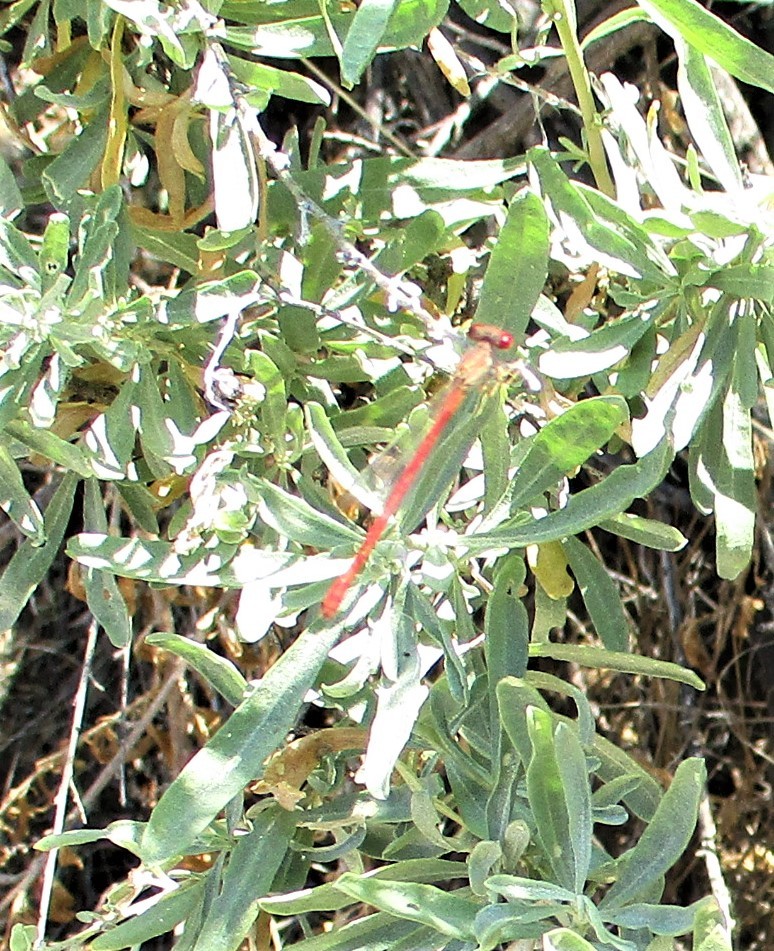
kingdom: Animalia
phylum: Arthropoda
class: Insecta
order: Odonata
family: Coenagrionidae
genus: Telebasis
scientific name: Telebasis salva
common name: Desert firetail
